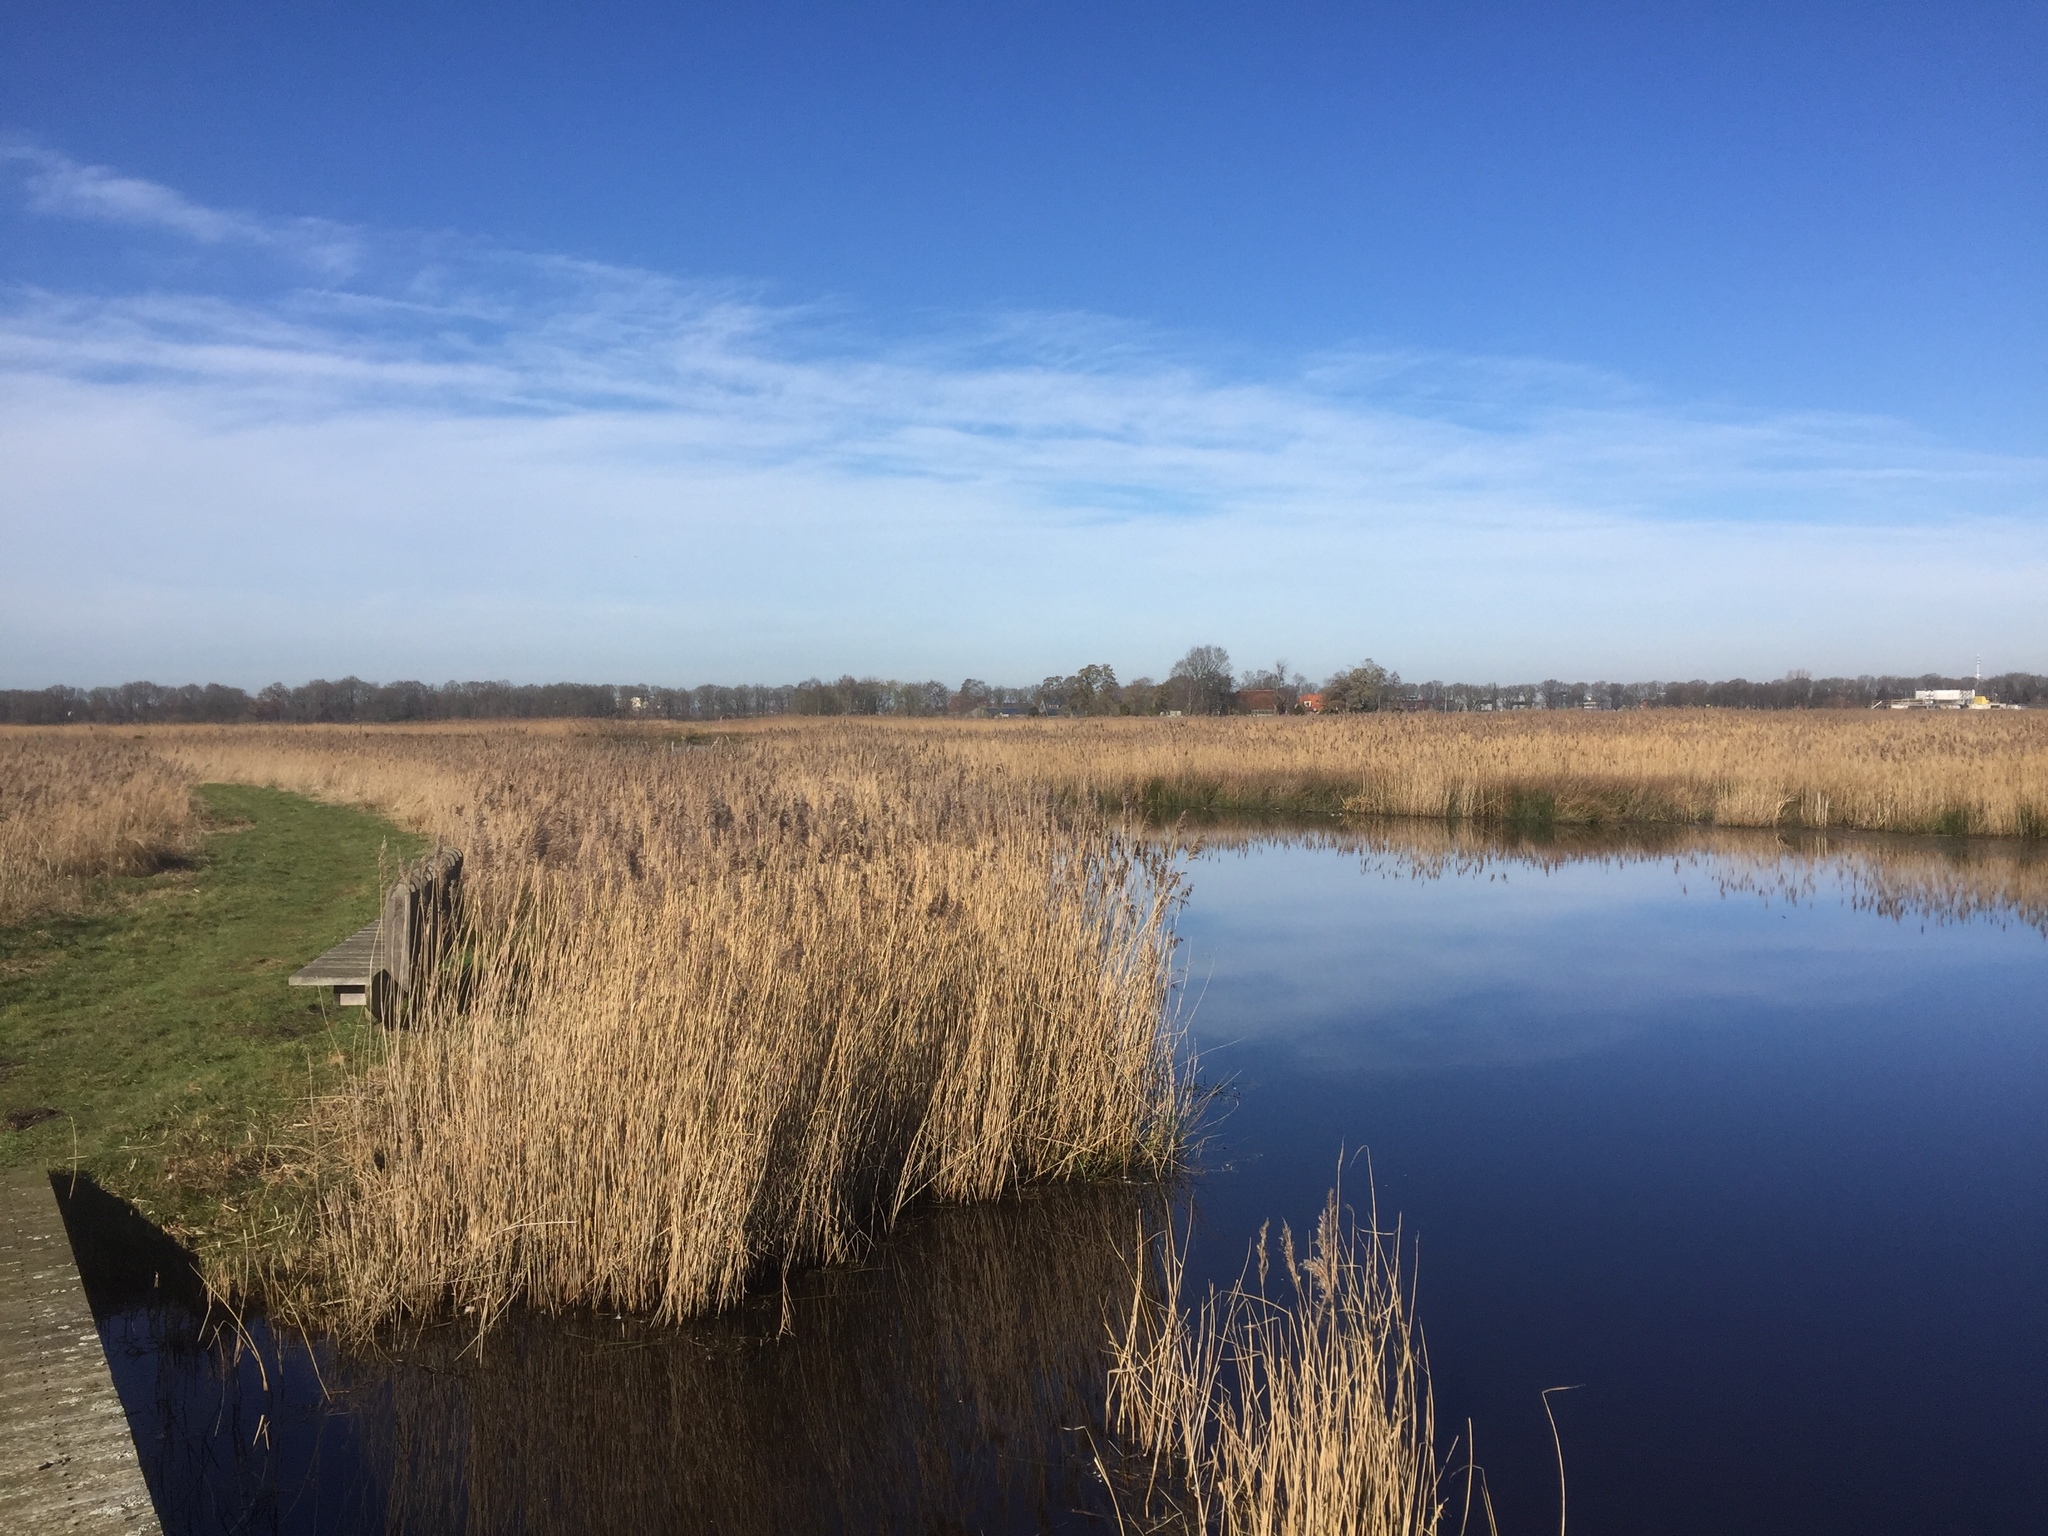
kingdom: Plantae
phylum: Tracheophyta
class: Liliopsida
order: Poales
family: Poaceae
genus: Phragmites
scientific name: Phragmites australis
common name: Common reed
